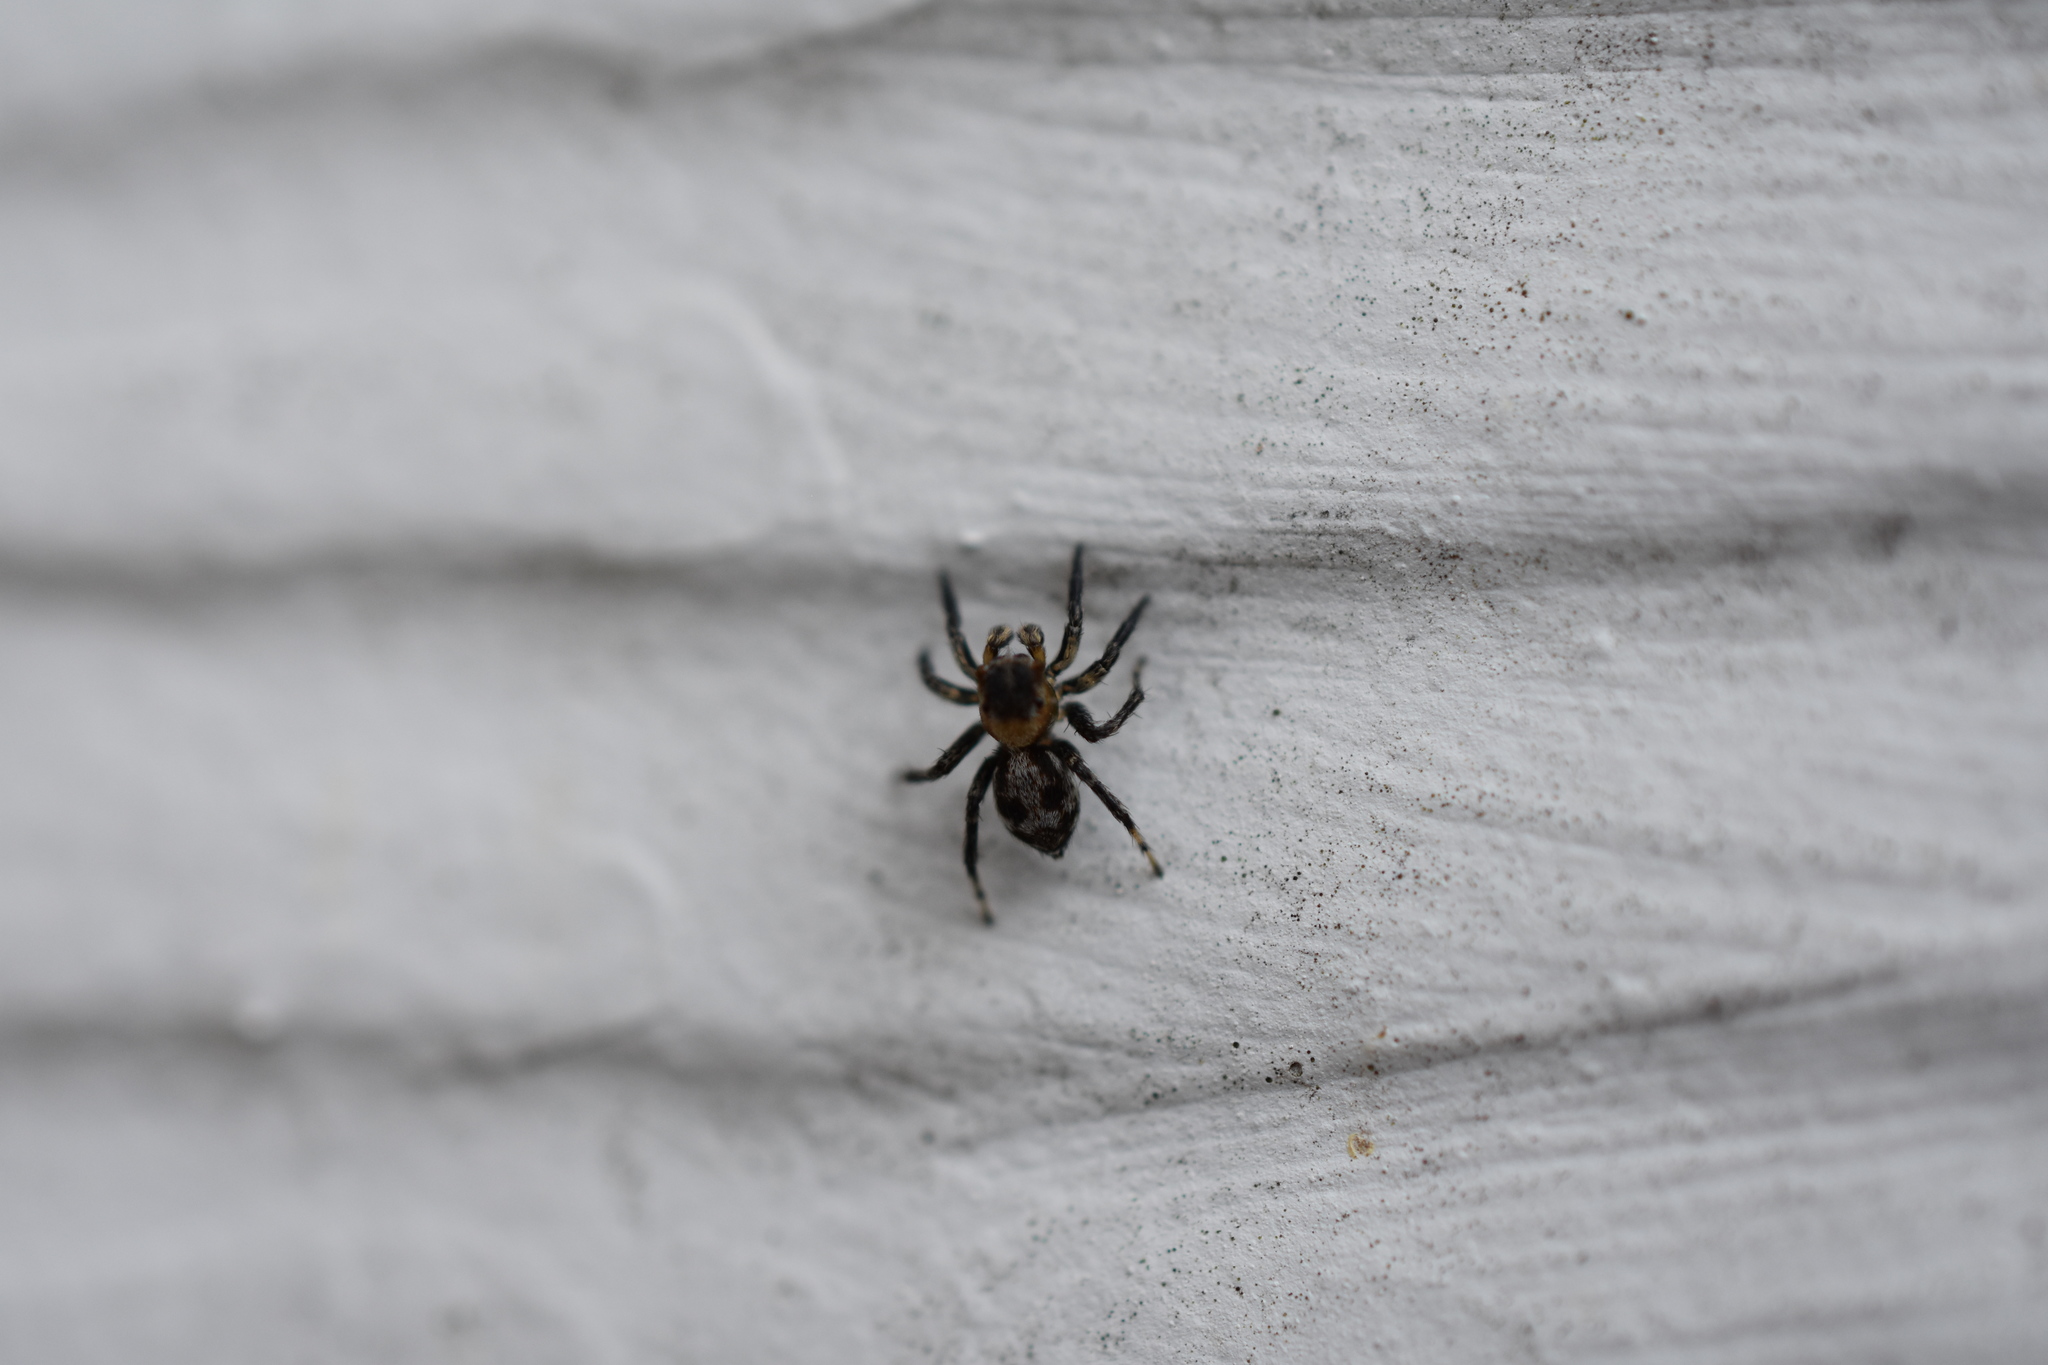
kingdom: Animalia
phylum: Arthropoda
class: Arachnida
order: Araneae
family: Salticidae
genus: Naphrys
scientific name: Naphrys pulex
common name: Flea jumping spider
